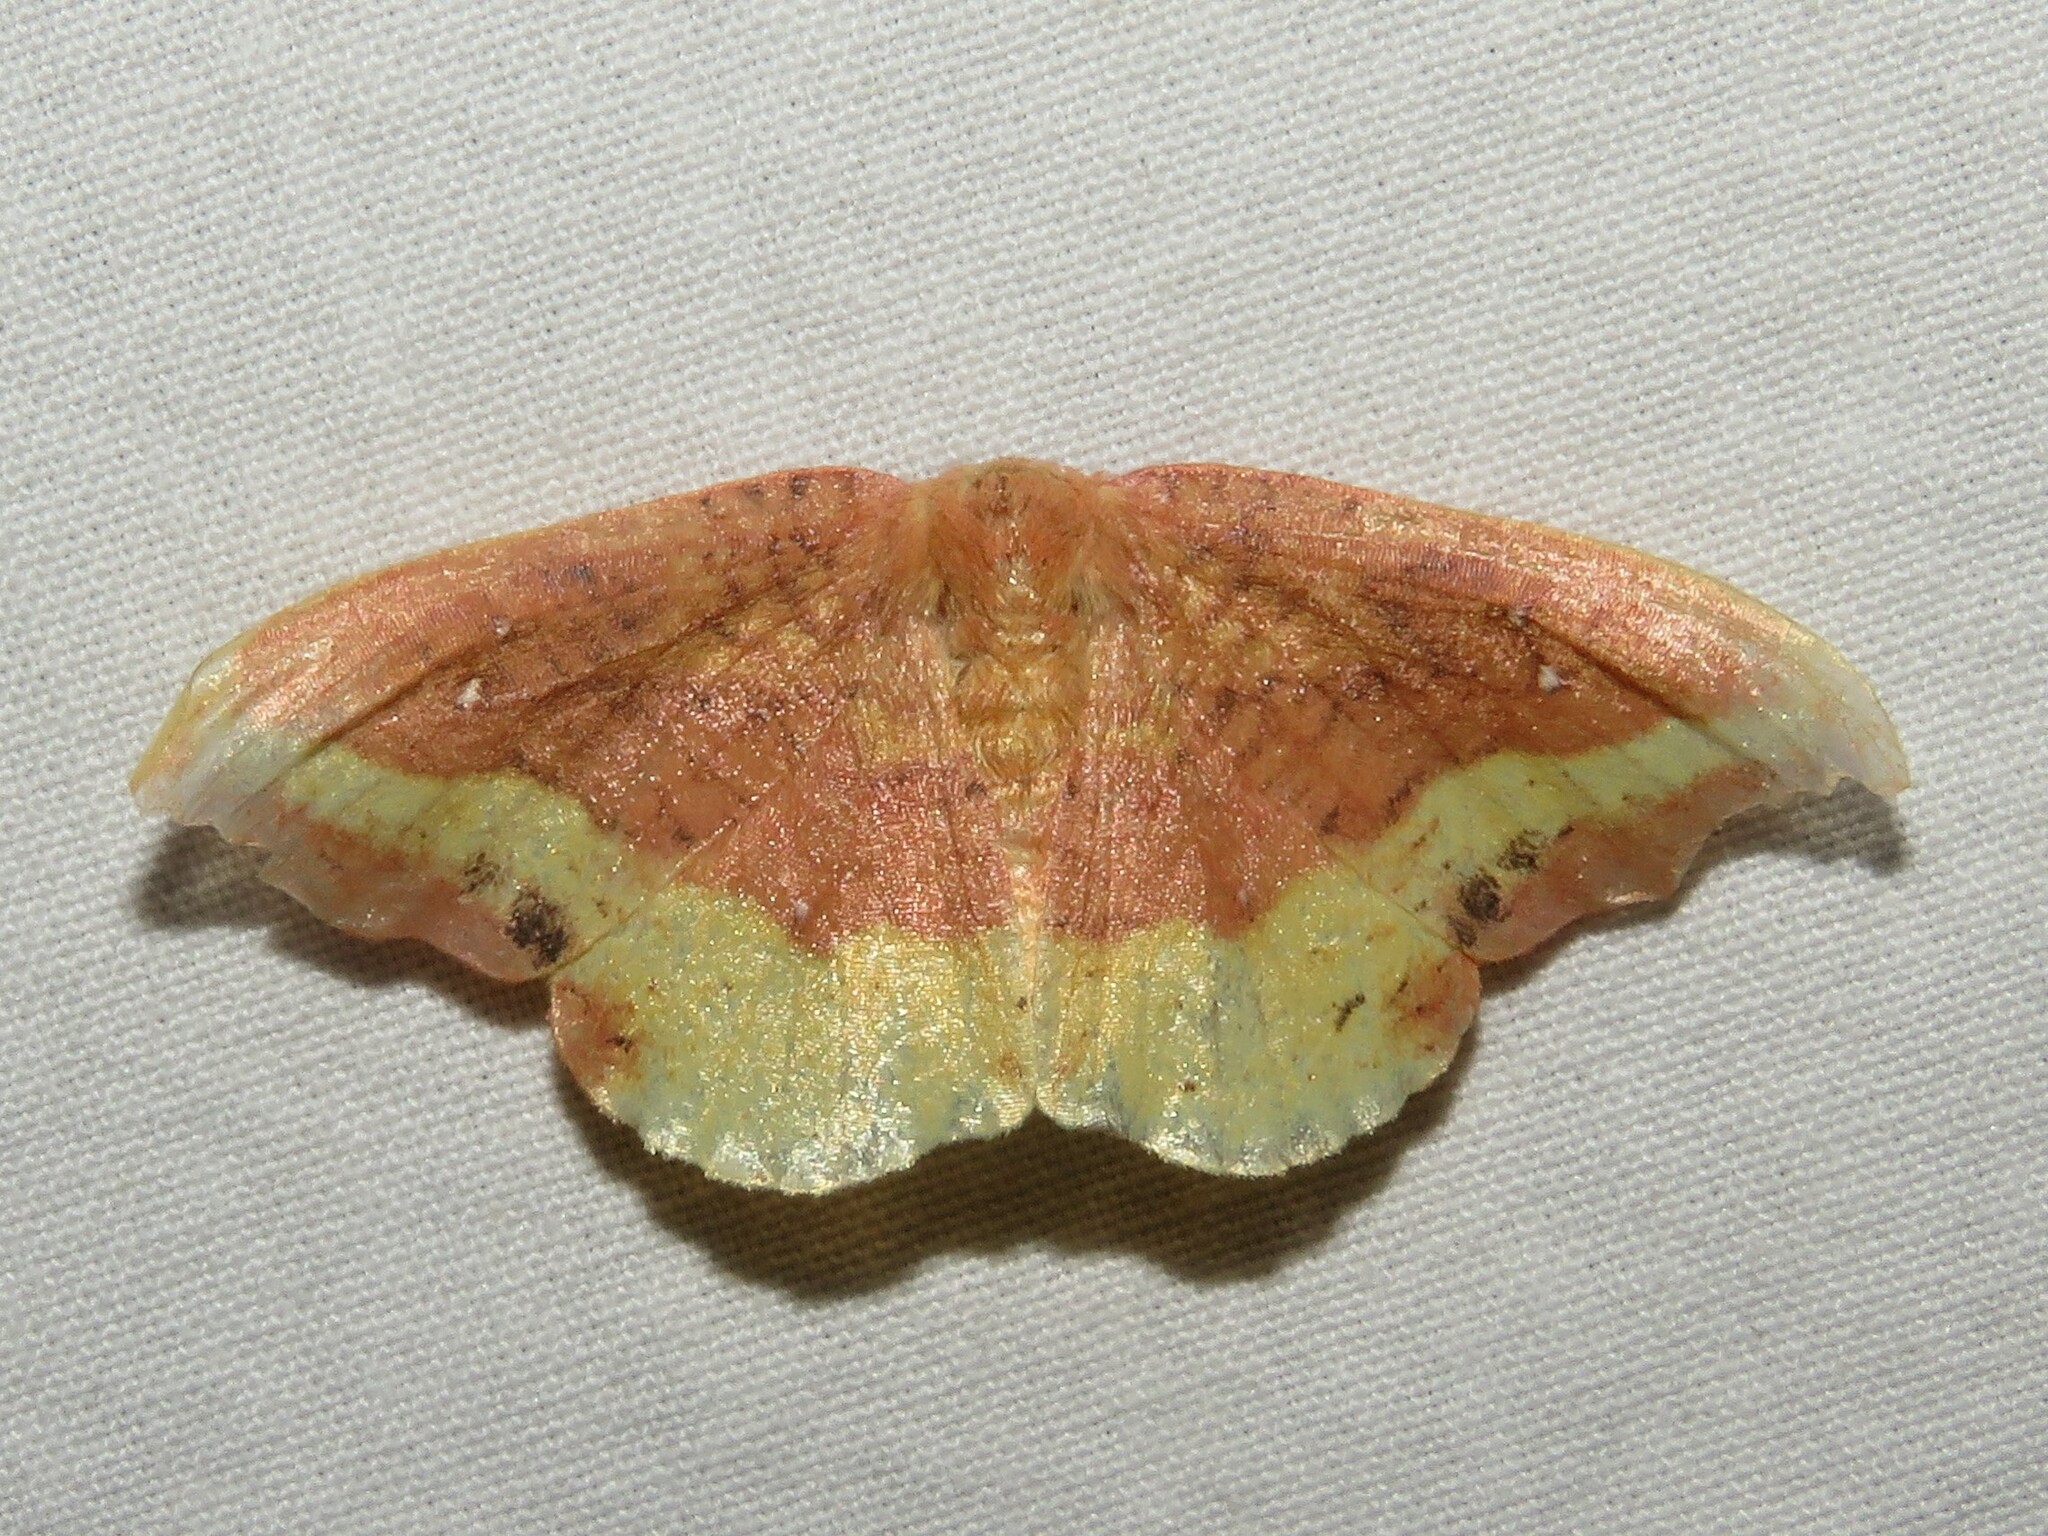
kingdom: Animalia
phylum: Arthropoda
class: Insecta
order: Lepidoptera
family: Drepanidae
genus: Oreta
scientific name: Oreta rosea
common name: Rose hooktip
